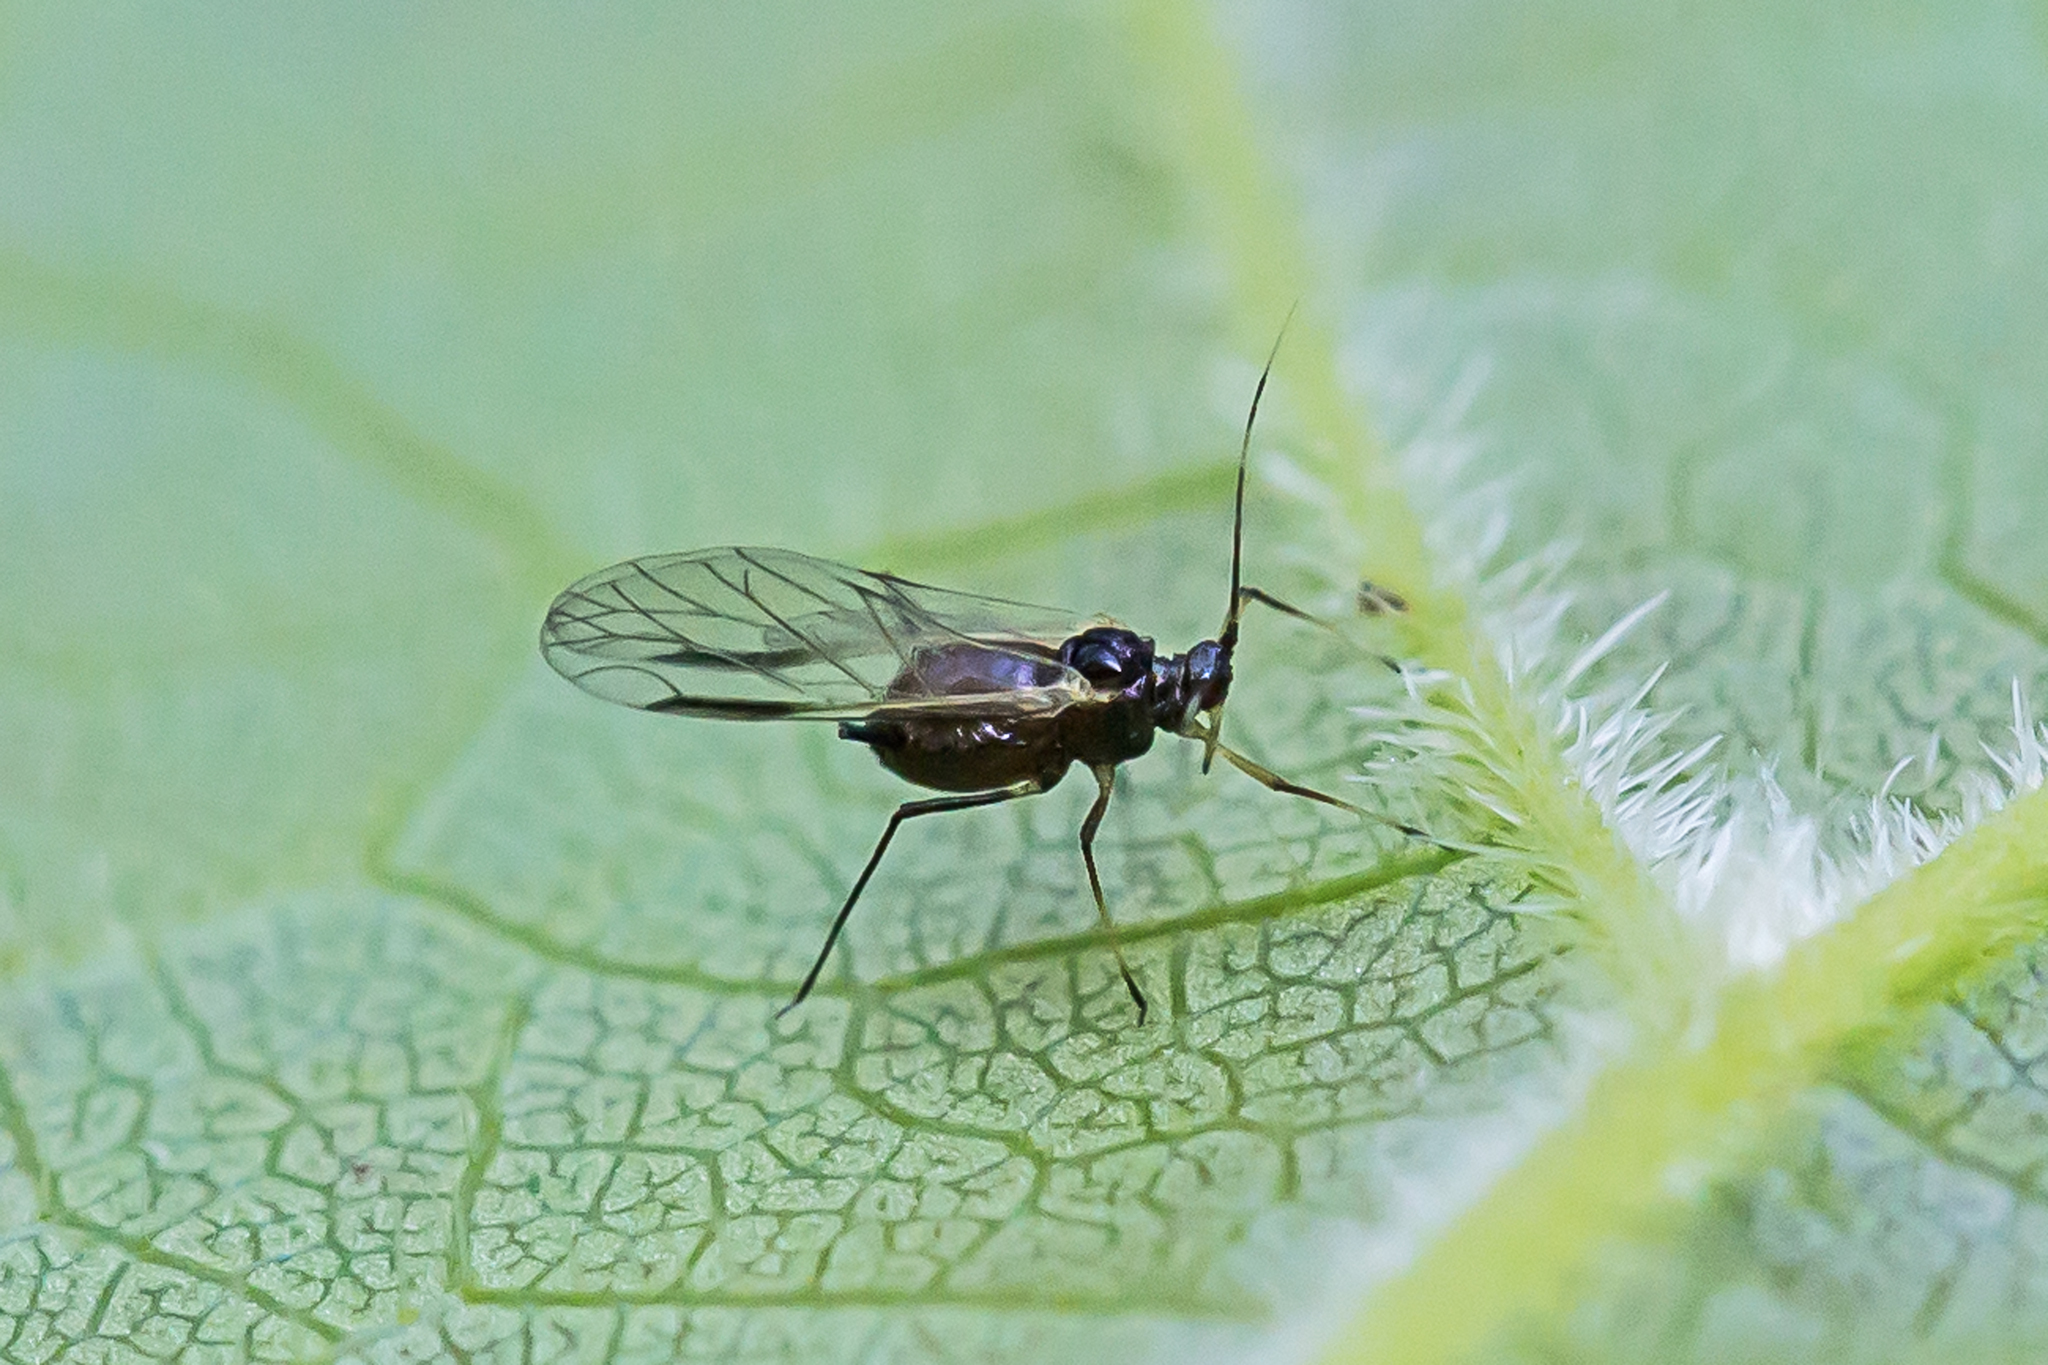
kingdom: Animalia
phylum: Arthropoda
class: Insecta
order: Hemiptera
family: Aphididae
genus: Aphis
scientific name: Aphis illinoisensis
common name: Grapevine aphid
